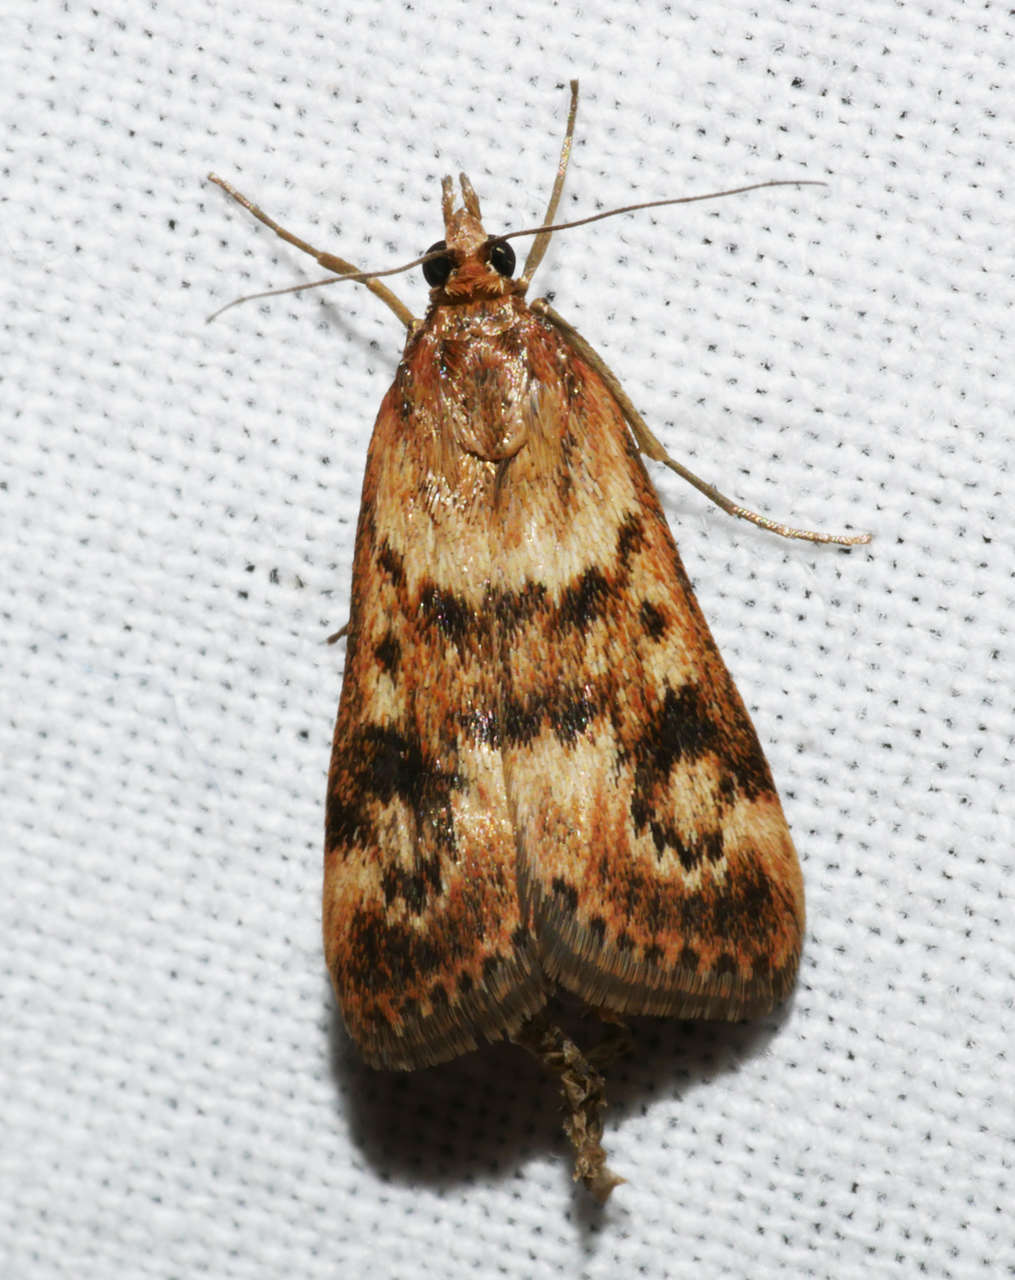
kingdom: Animalia
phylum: Arthropoda
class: Insecta
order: Lepidoptera
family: Crambidae
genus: Achyra
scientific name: Achyra affinitalis
